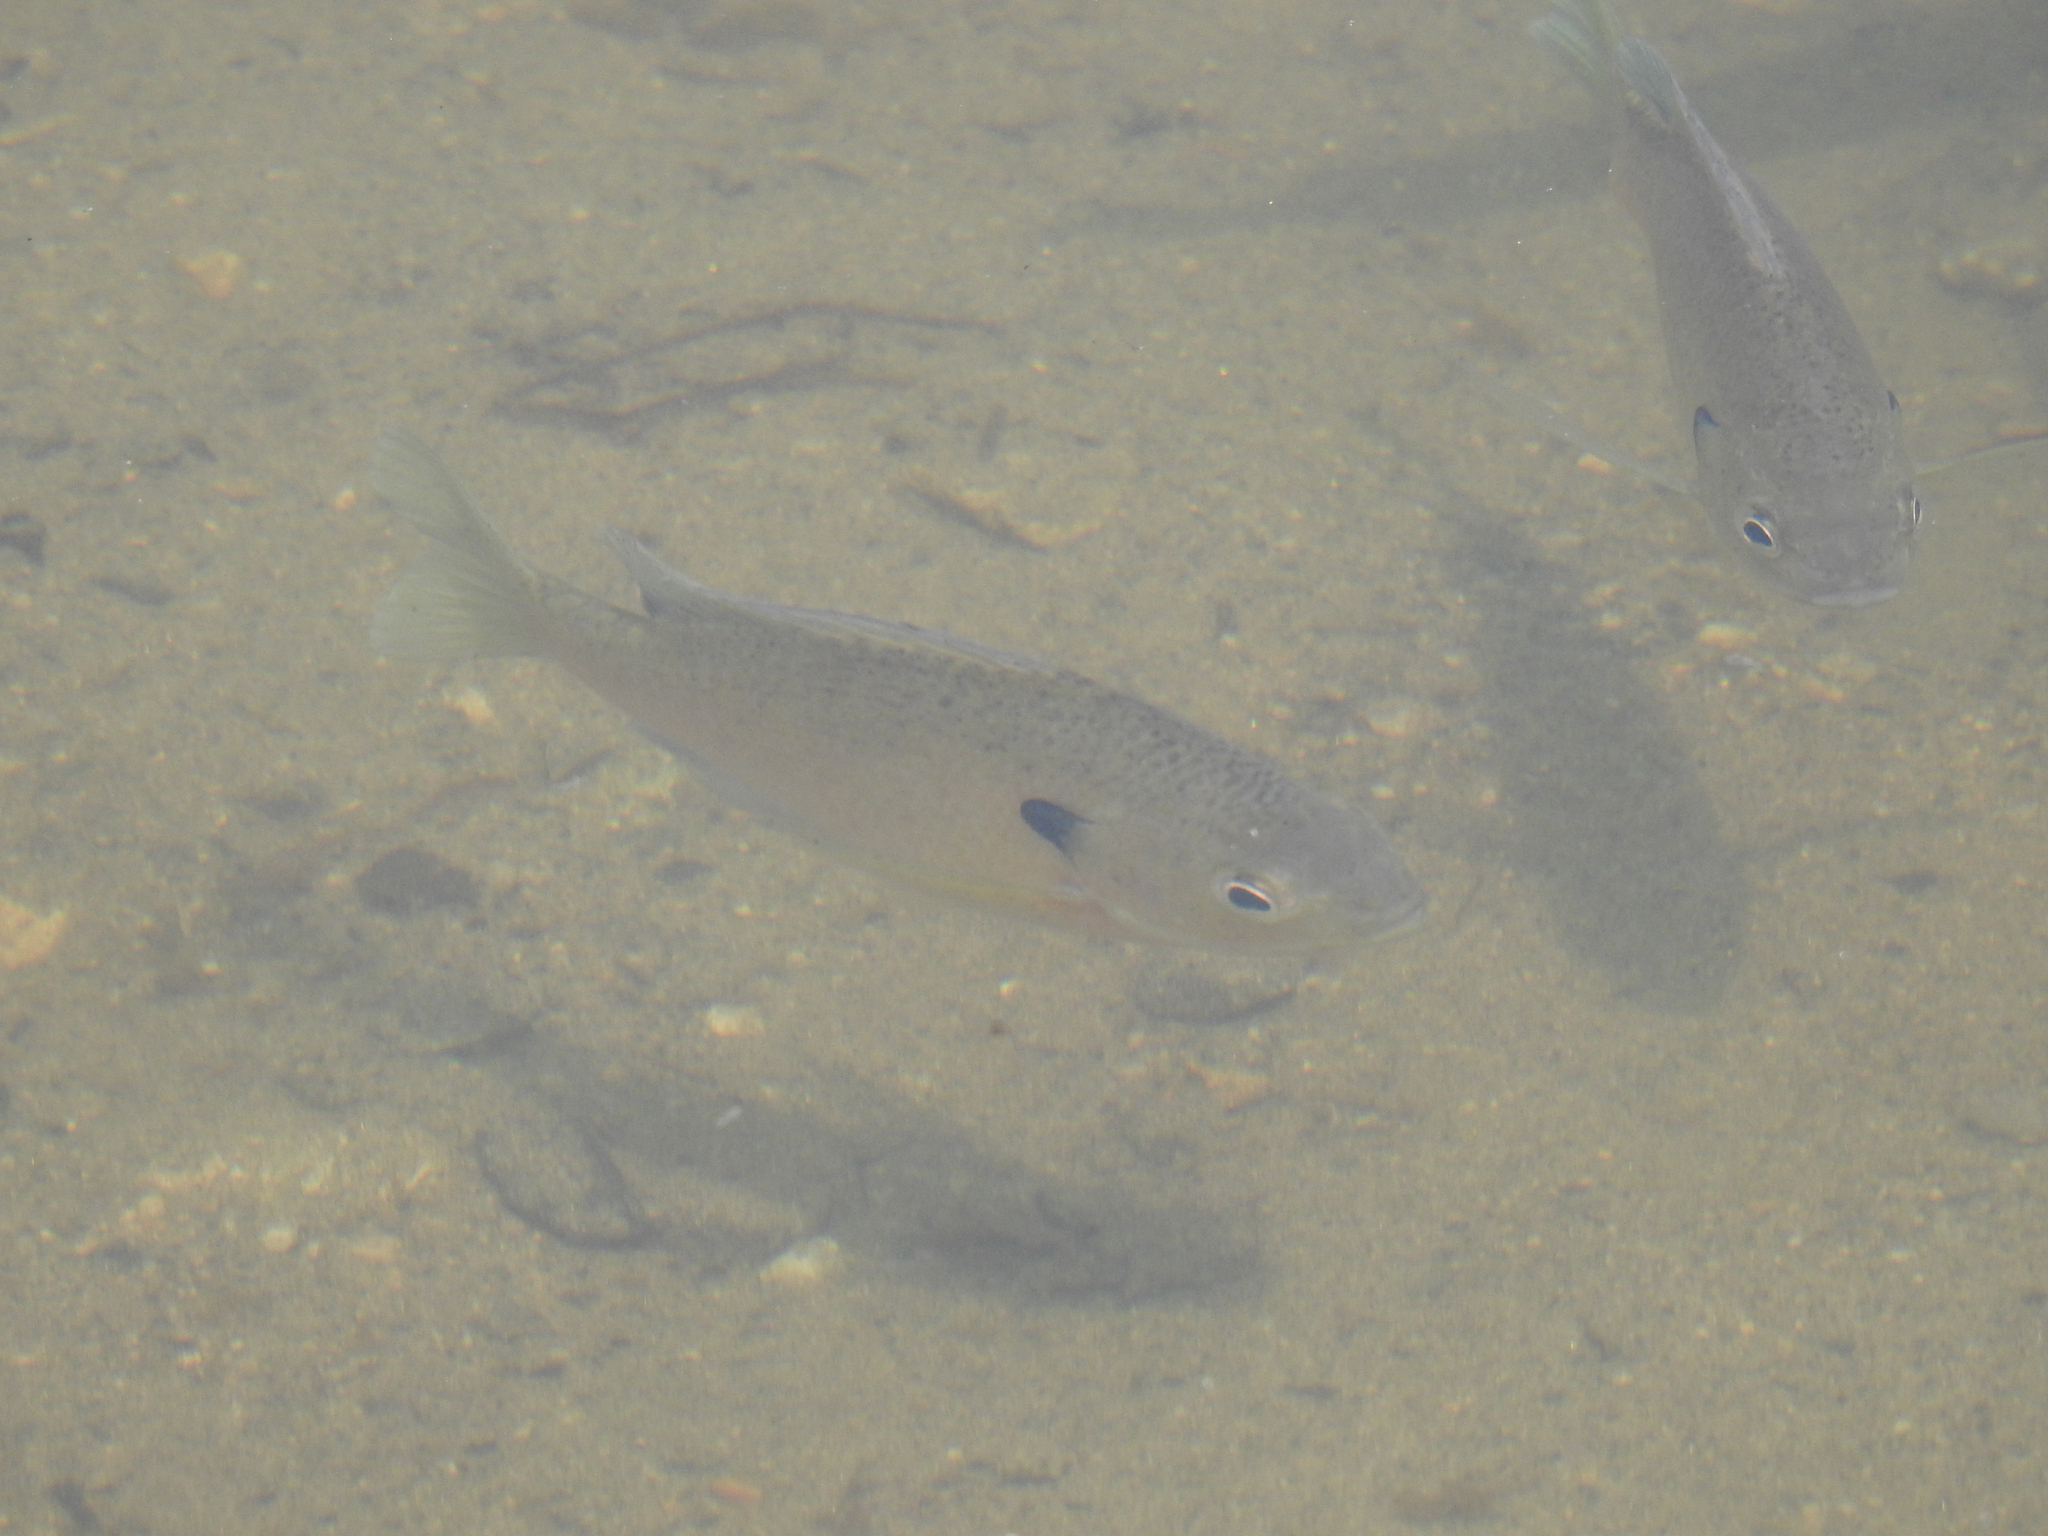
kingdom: Animalia
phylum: Chordata
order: Perciformes
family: Centrarchidae
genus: Lepomis
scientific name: Lepomis macrochirus
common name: Bluegill
